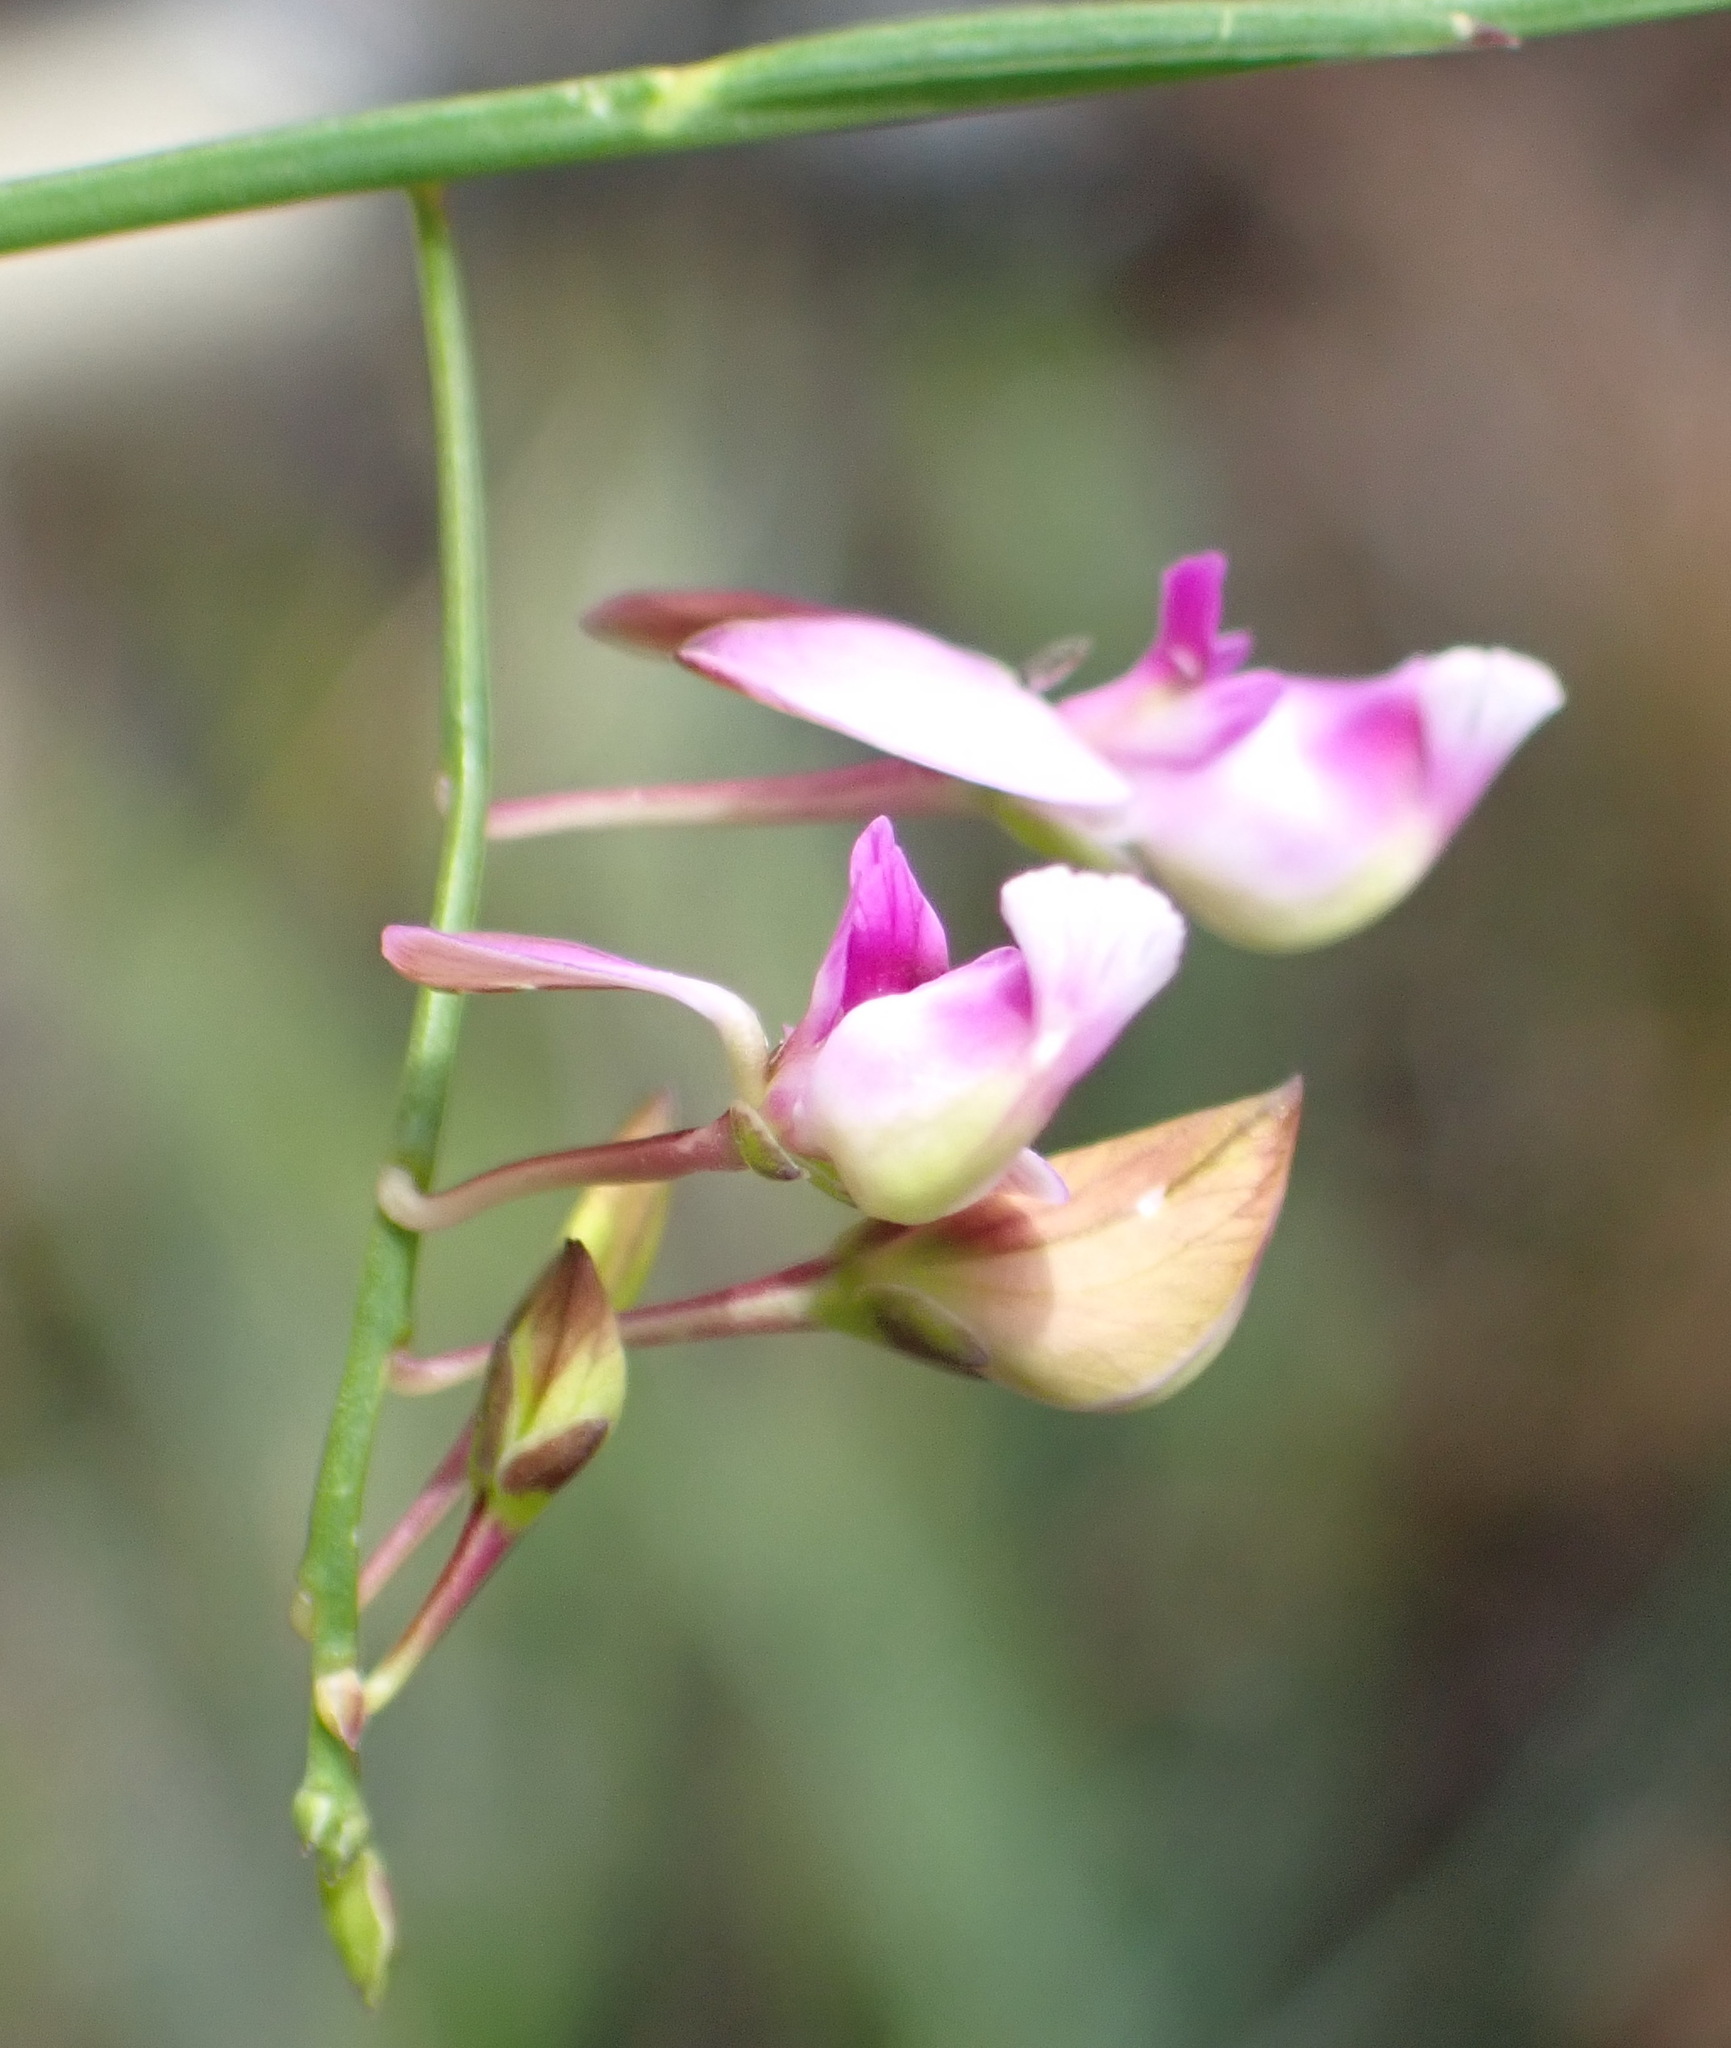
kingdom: Plantae
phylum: Tracheophyta
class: Magnoliopsida
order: Fabales
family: Polygalaceae
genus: Polygala
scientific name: Polygala refracta
